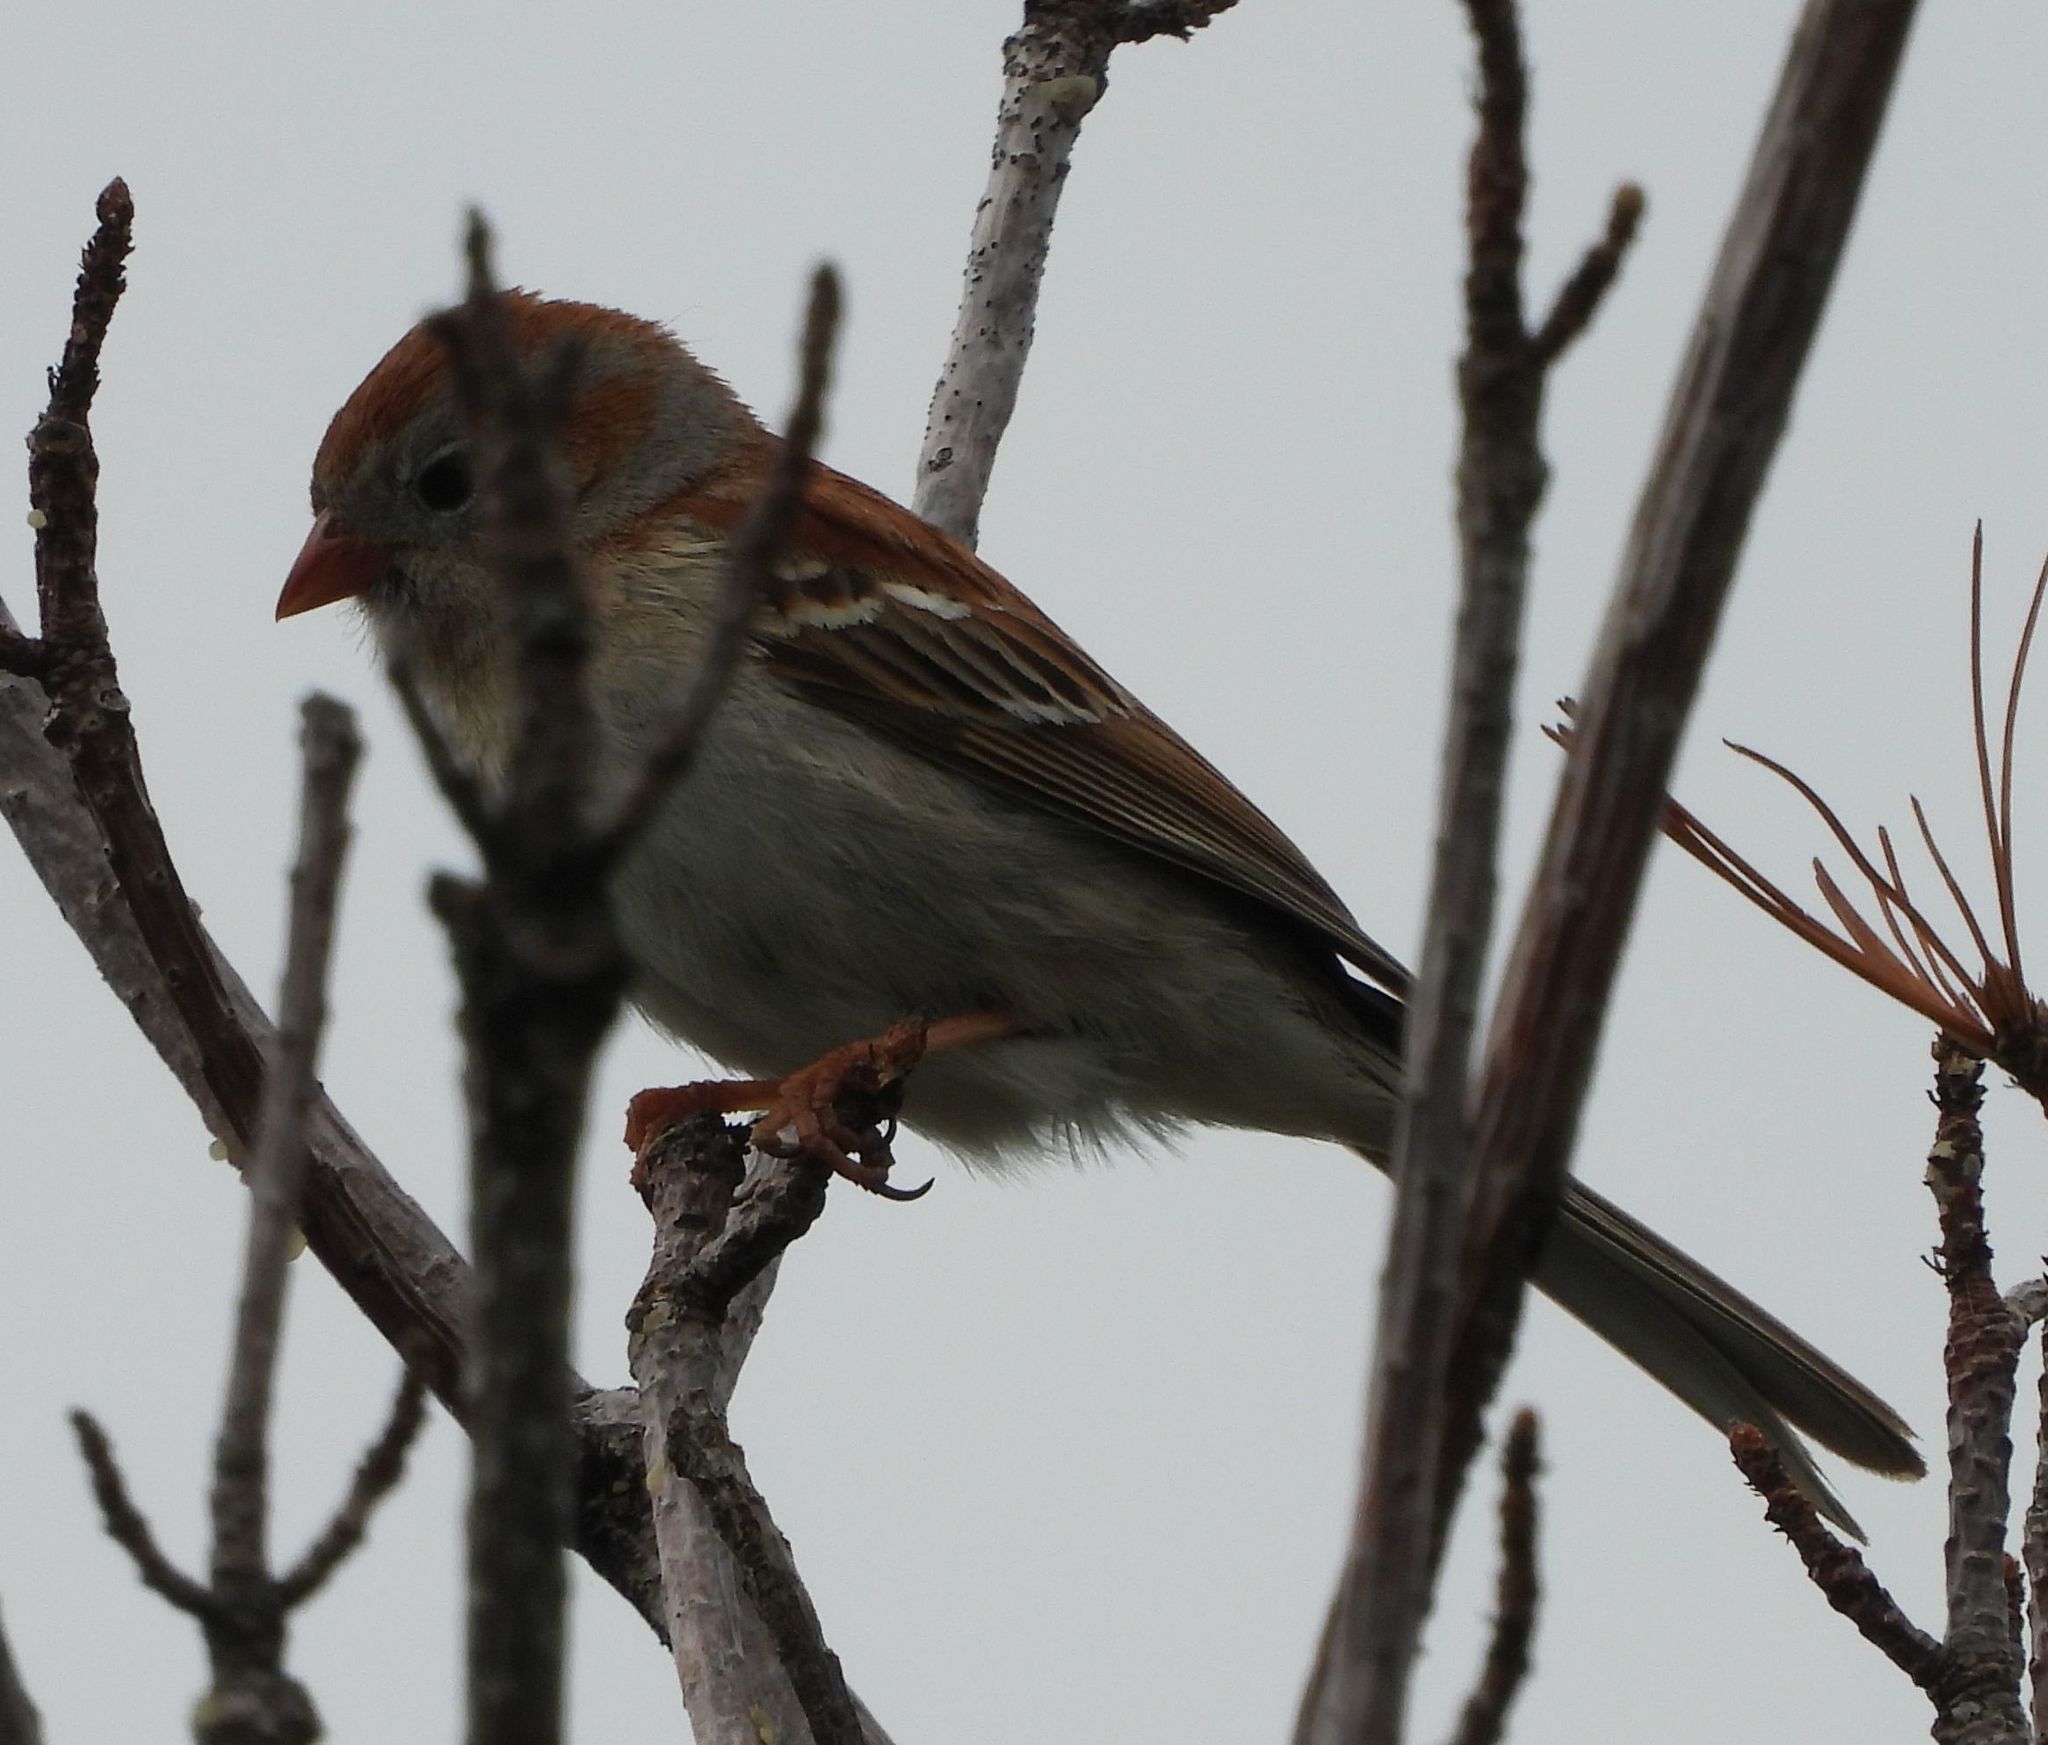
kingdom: Animalia
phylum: Chordata
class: Aves
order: Passeriformes
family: Passerellidae
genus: Spizella
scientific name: Spizella pusilla
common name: Field sparrow
